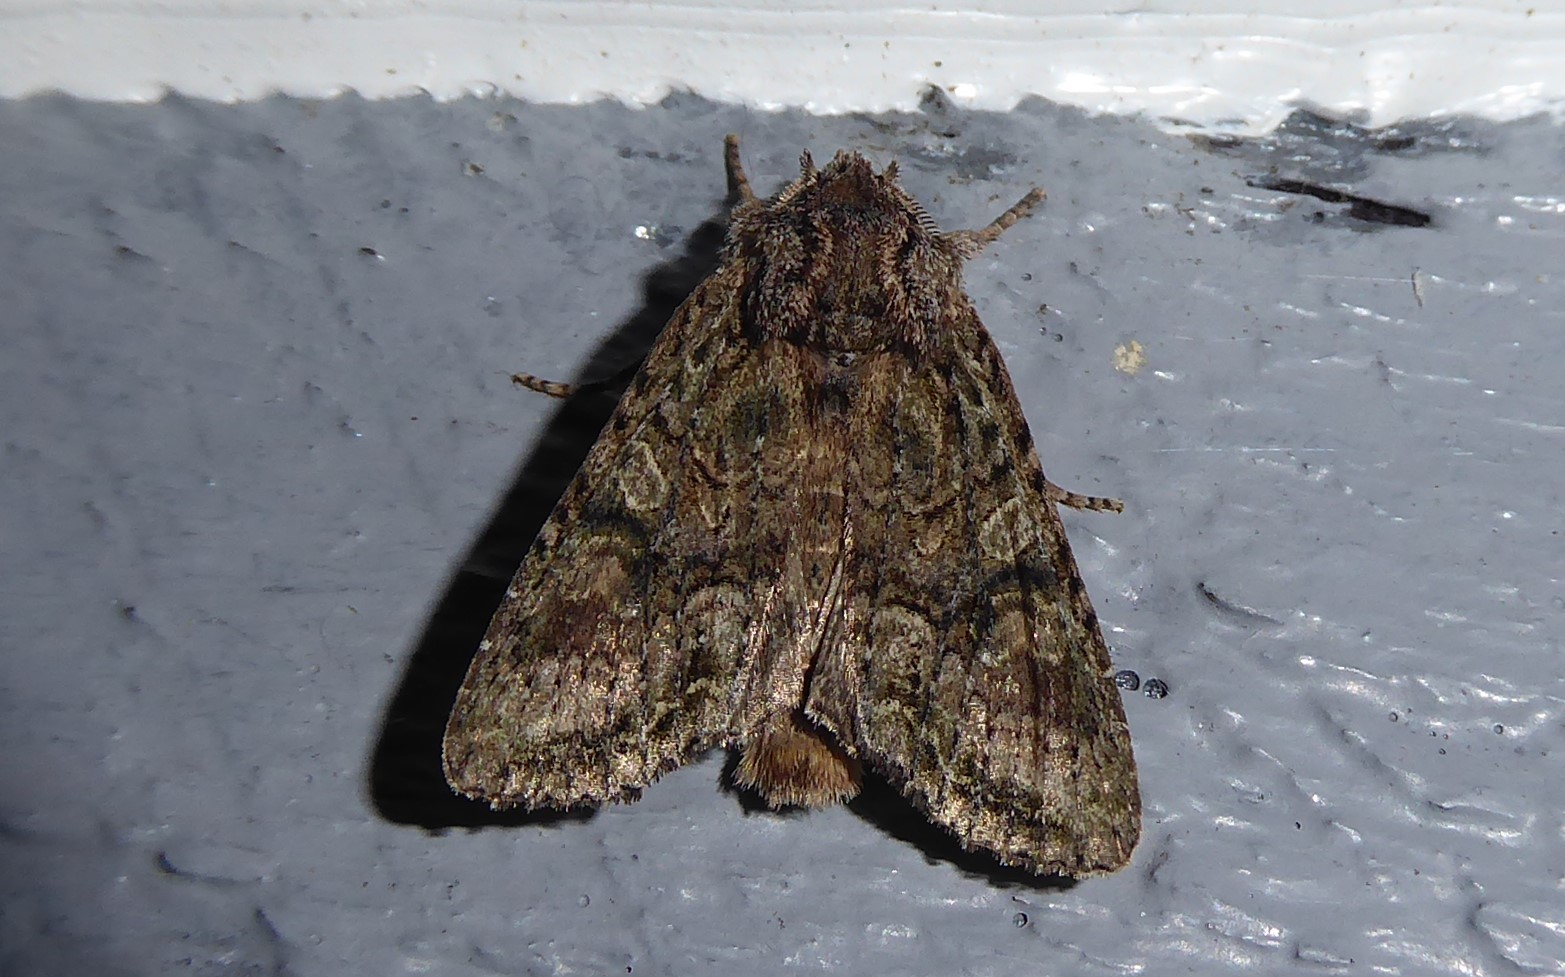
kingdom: Animalia
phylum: Arthropoda
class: Insecta
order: Lepidoptera
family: Noctuidae
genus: Ichneutica
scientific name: Ichneutica mutans
